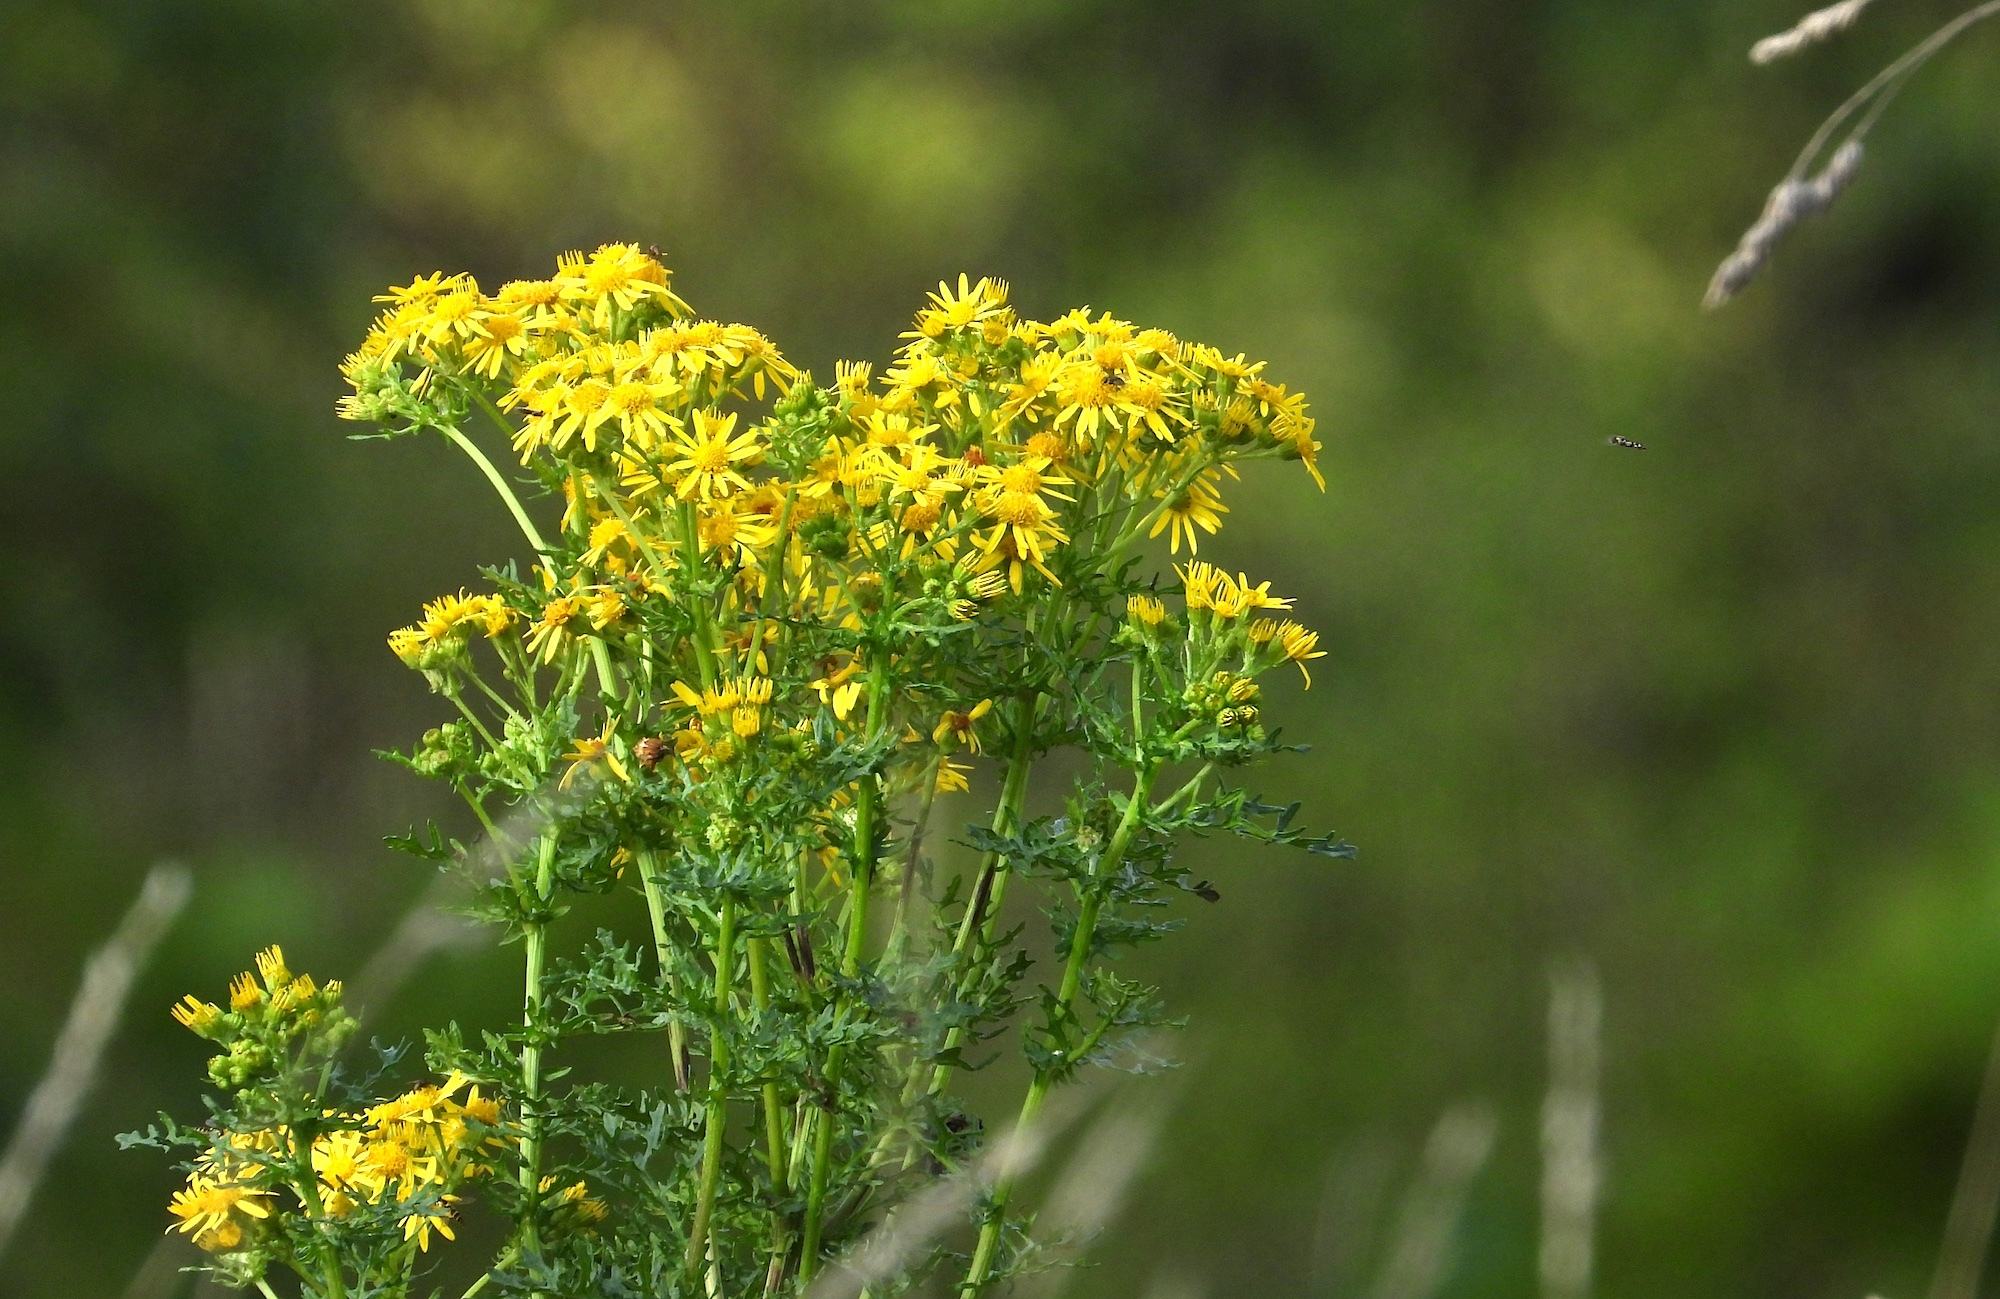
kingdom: Plantae
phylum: Tracheophyta
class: Magnoliopsida
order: Asterales
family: Asteraceae
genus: Jacobaea
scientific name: Jacobaea vulgaris
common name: Stinking willie
